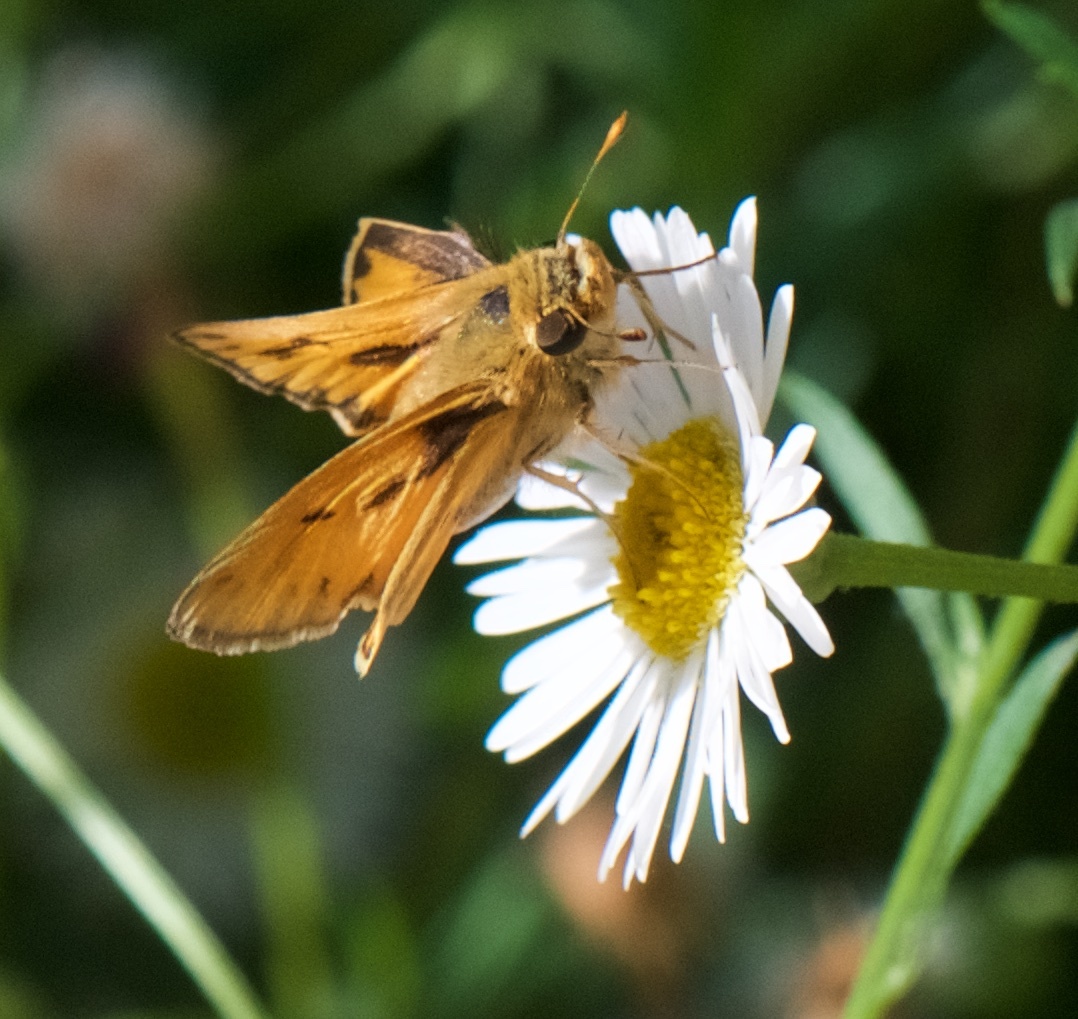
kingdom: Animalia
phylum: Arthropoda
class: Insecta
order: Lepidoptera
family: Hesperiidae
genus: Hylephila
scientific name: Hylephila phyleus
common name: Fiery skipper
